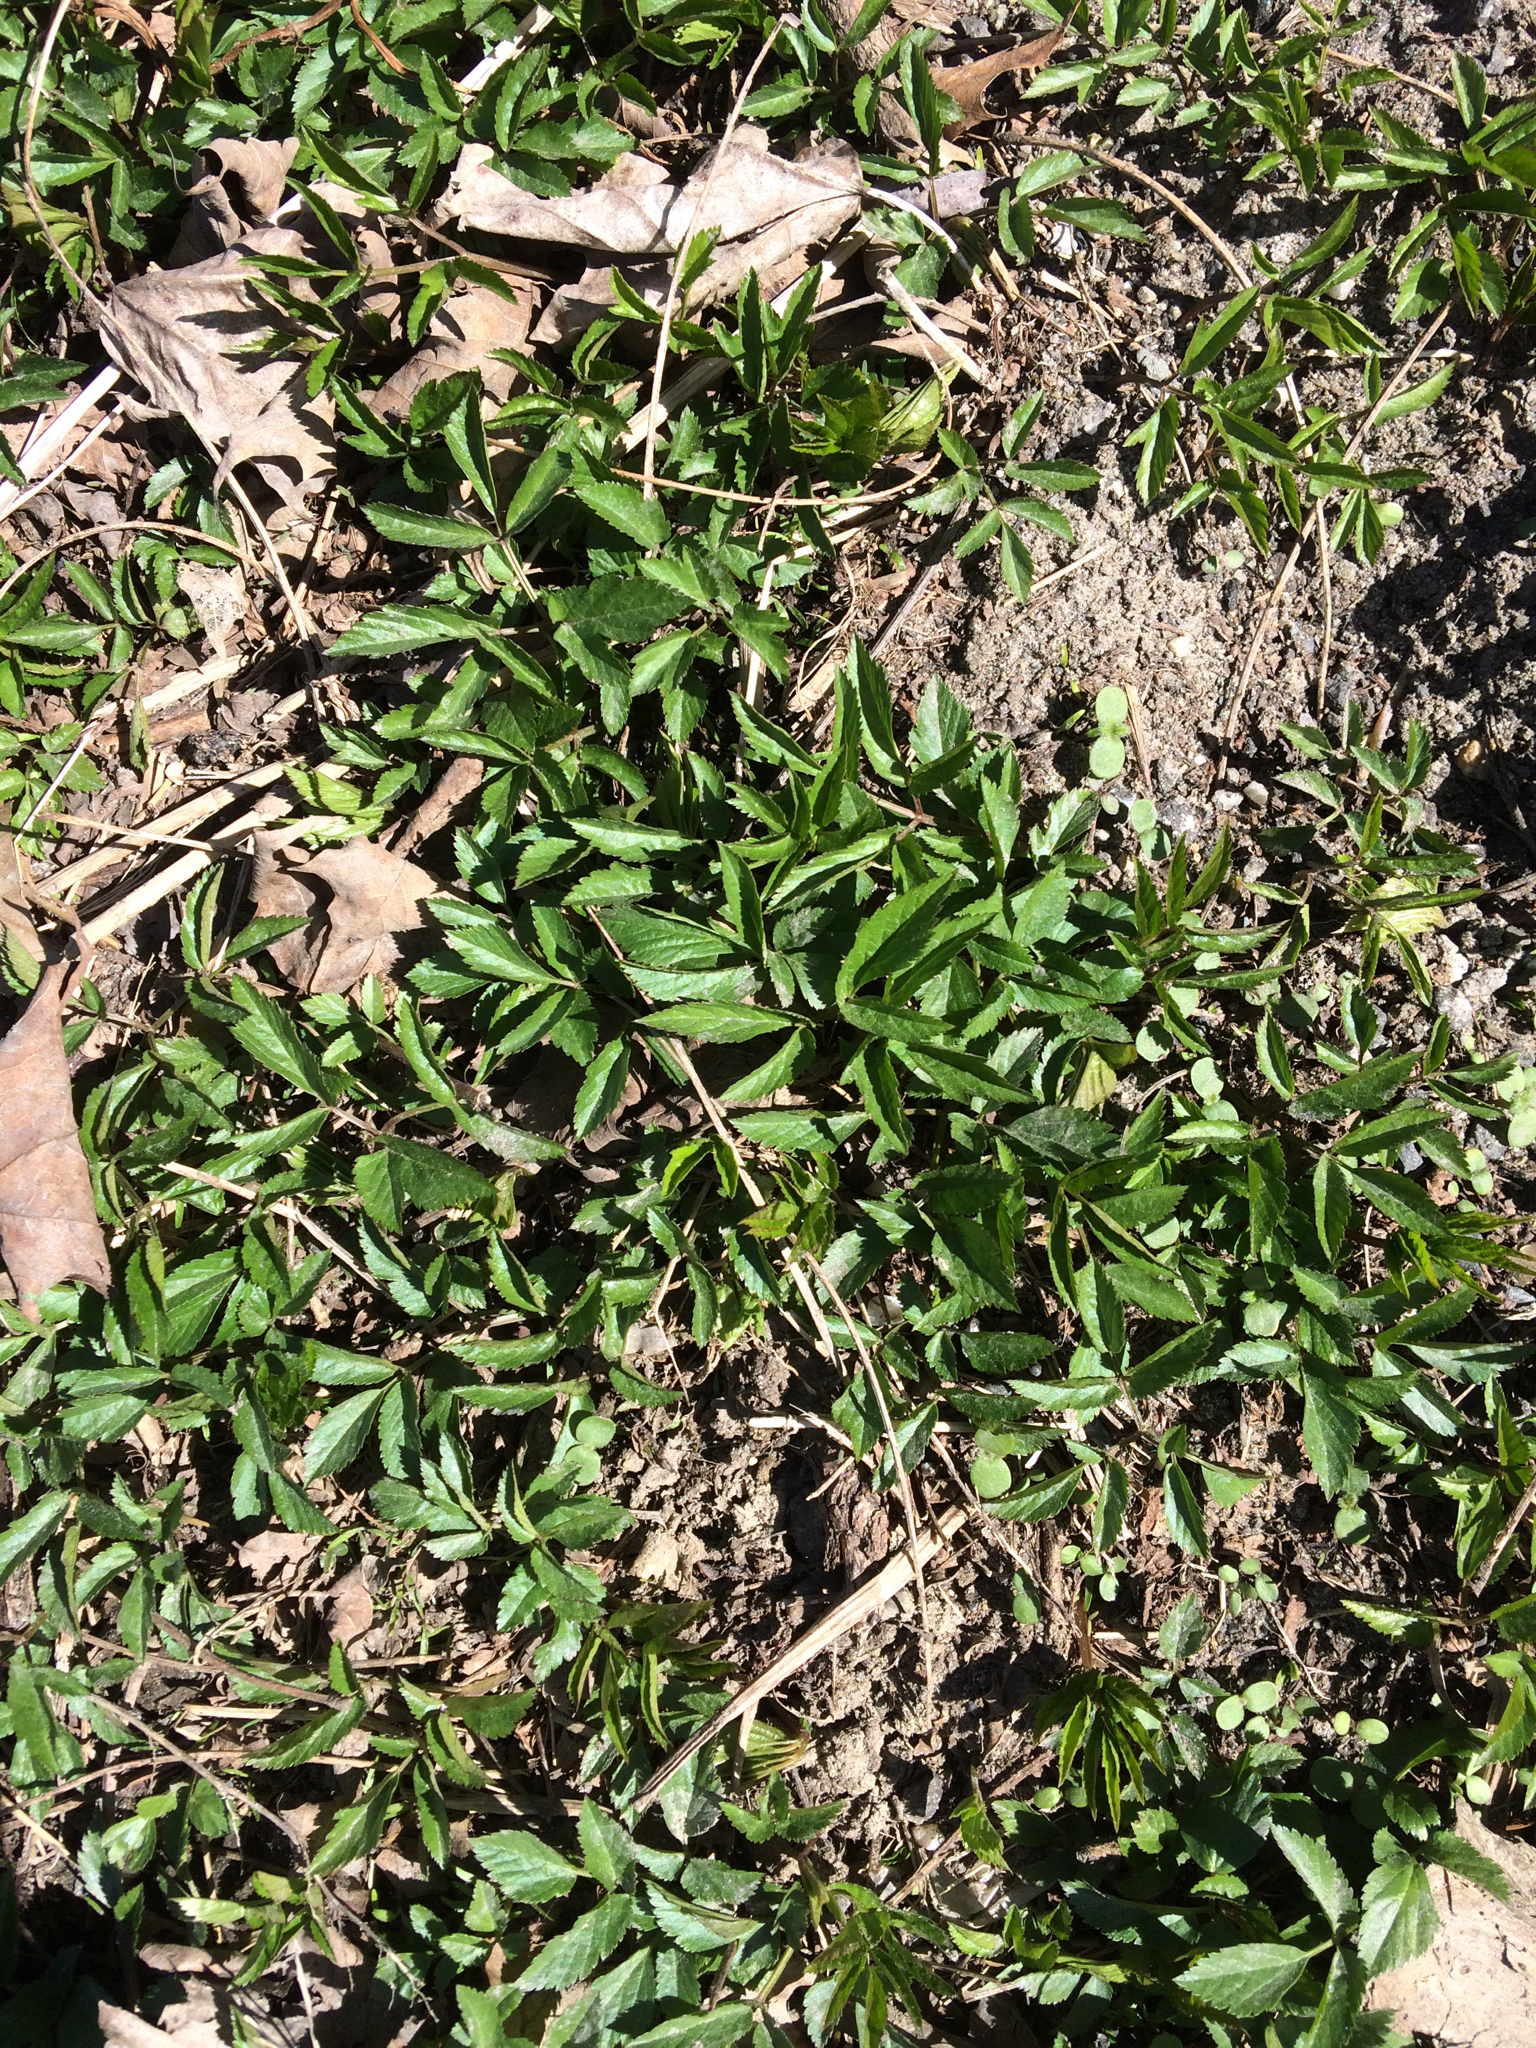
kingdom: Plantae
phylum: Tracheophyta
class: Magnoliopsida
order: Apiales
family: Apiaceae
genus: Aegopodium
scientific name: Aegopodium podagraria
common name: Ground-elder
